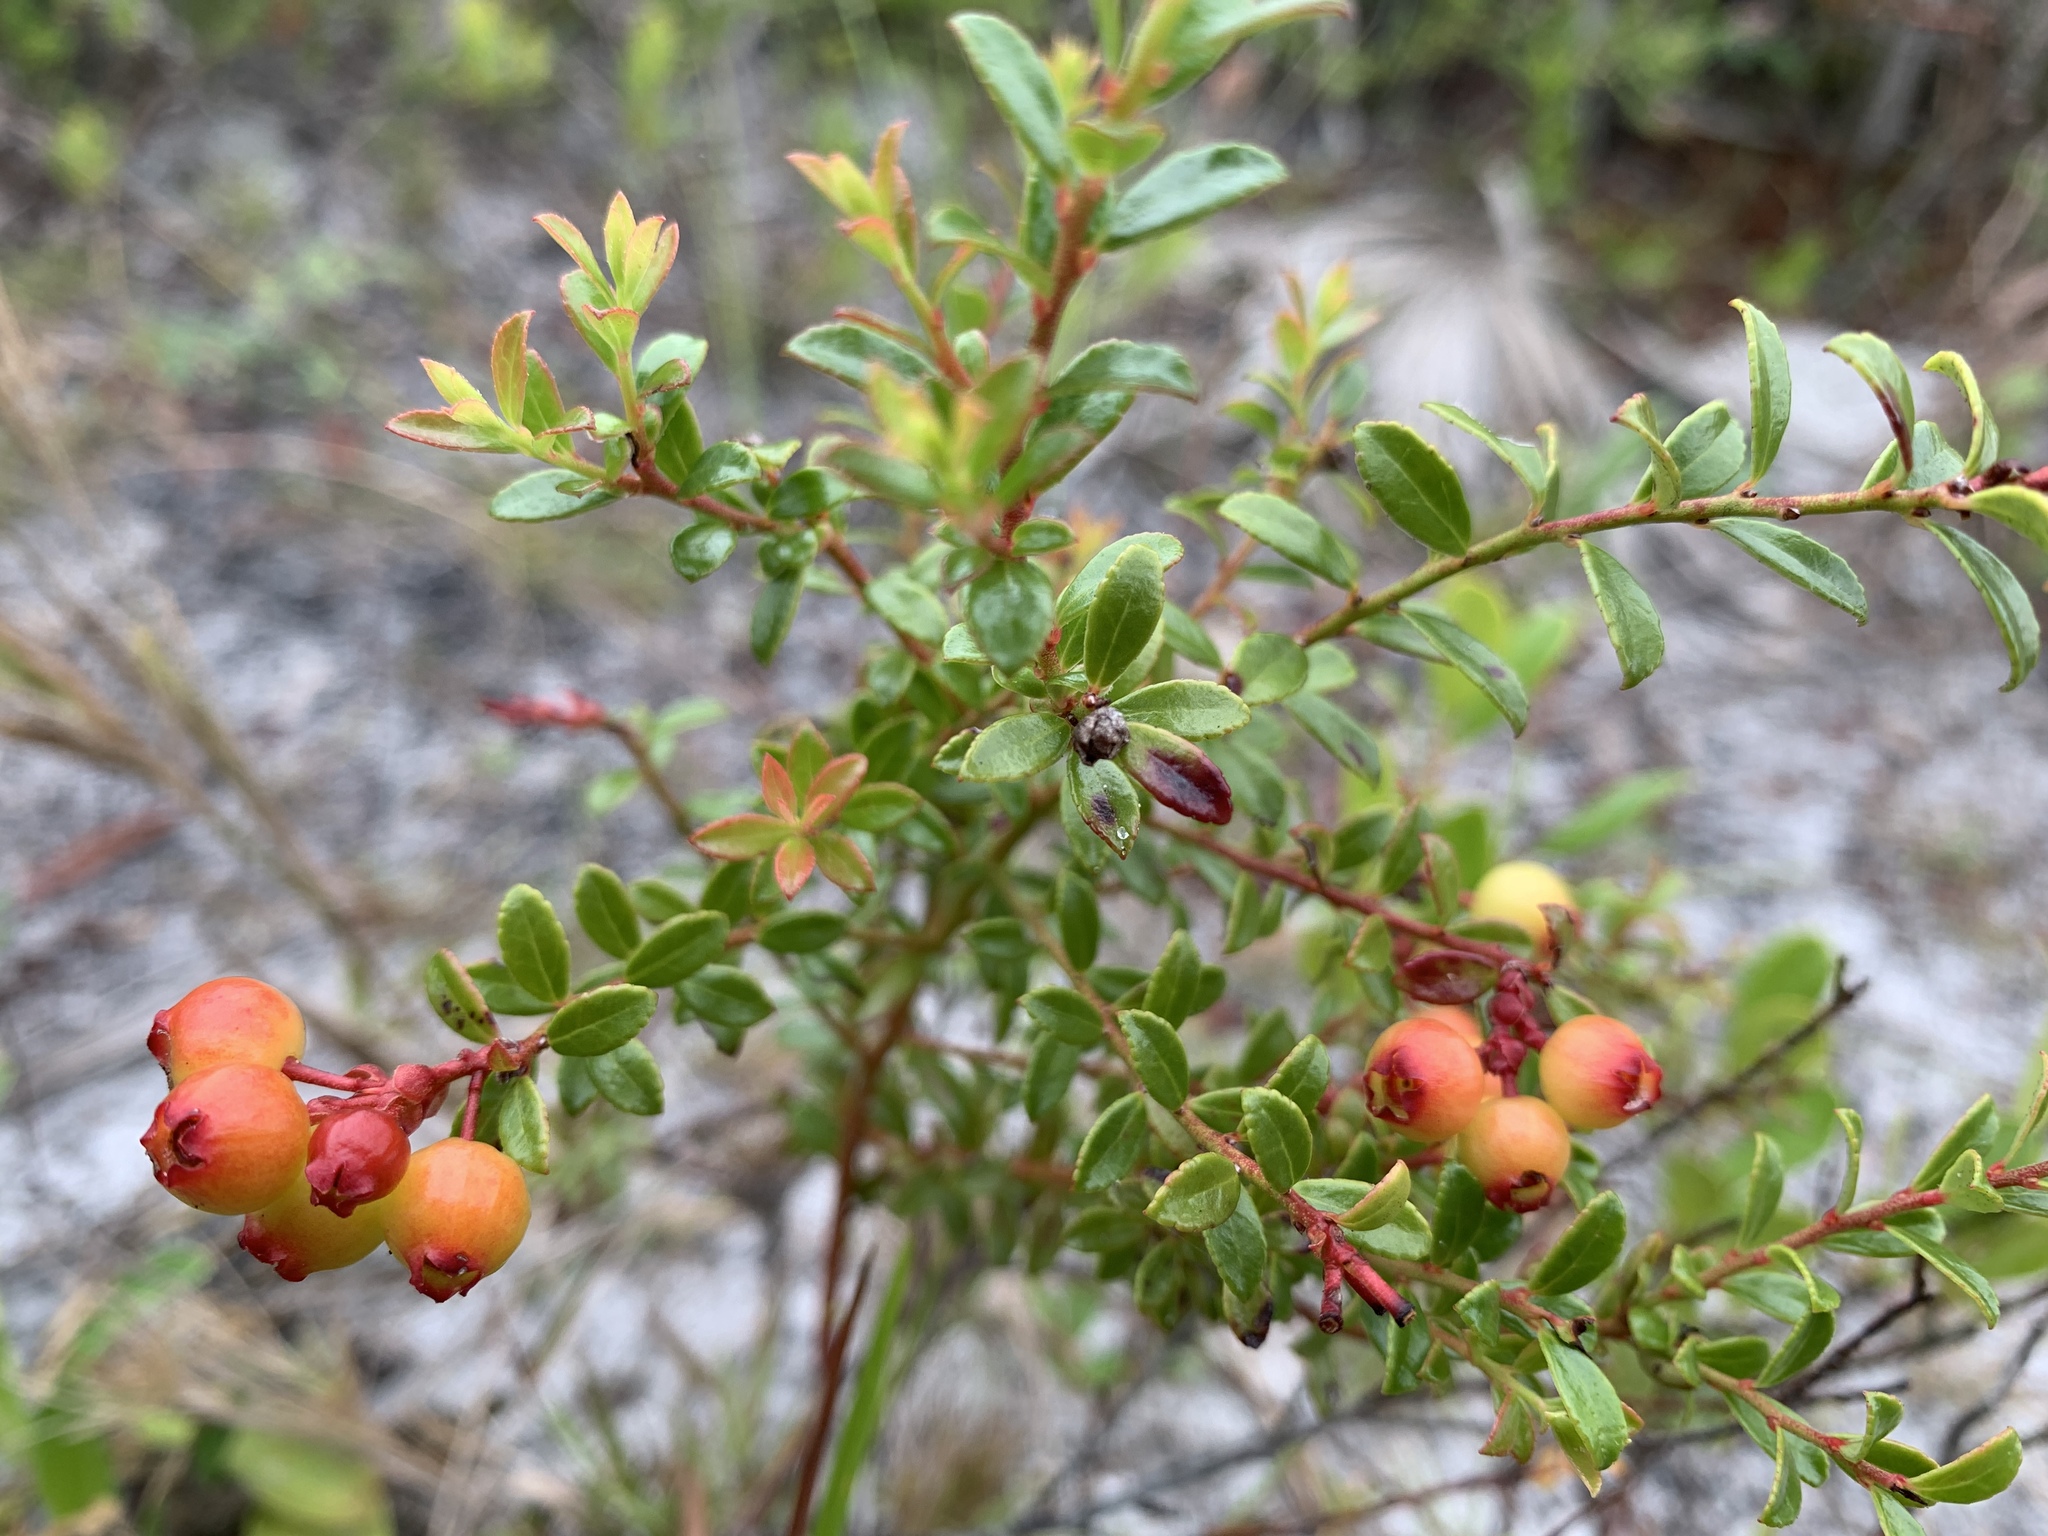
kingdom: Plantae
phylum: Tracheophyta
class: Magnoliopsida
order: Ericales
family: Ericaceae
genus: Vaccinium
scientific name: Vaccinium myrsinites
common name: Evergreen blueberry
